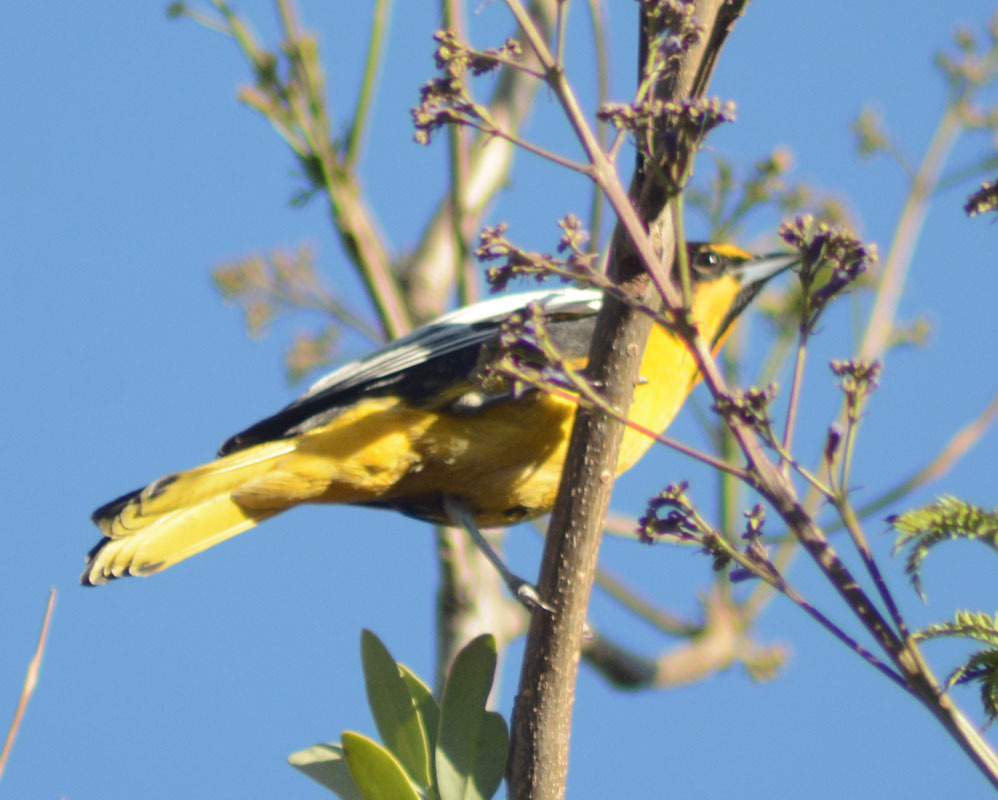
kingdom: Animalia
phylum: Chordata
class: Aves
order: Passeriformes
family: Icteridae
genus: Icterus
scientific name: Icterus abeillei
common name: Black-backed oriole
